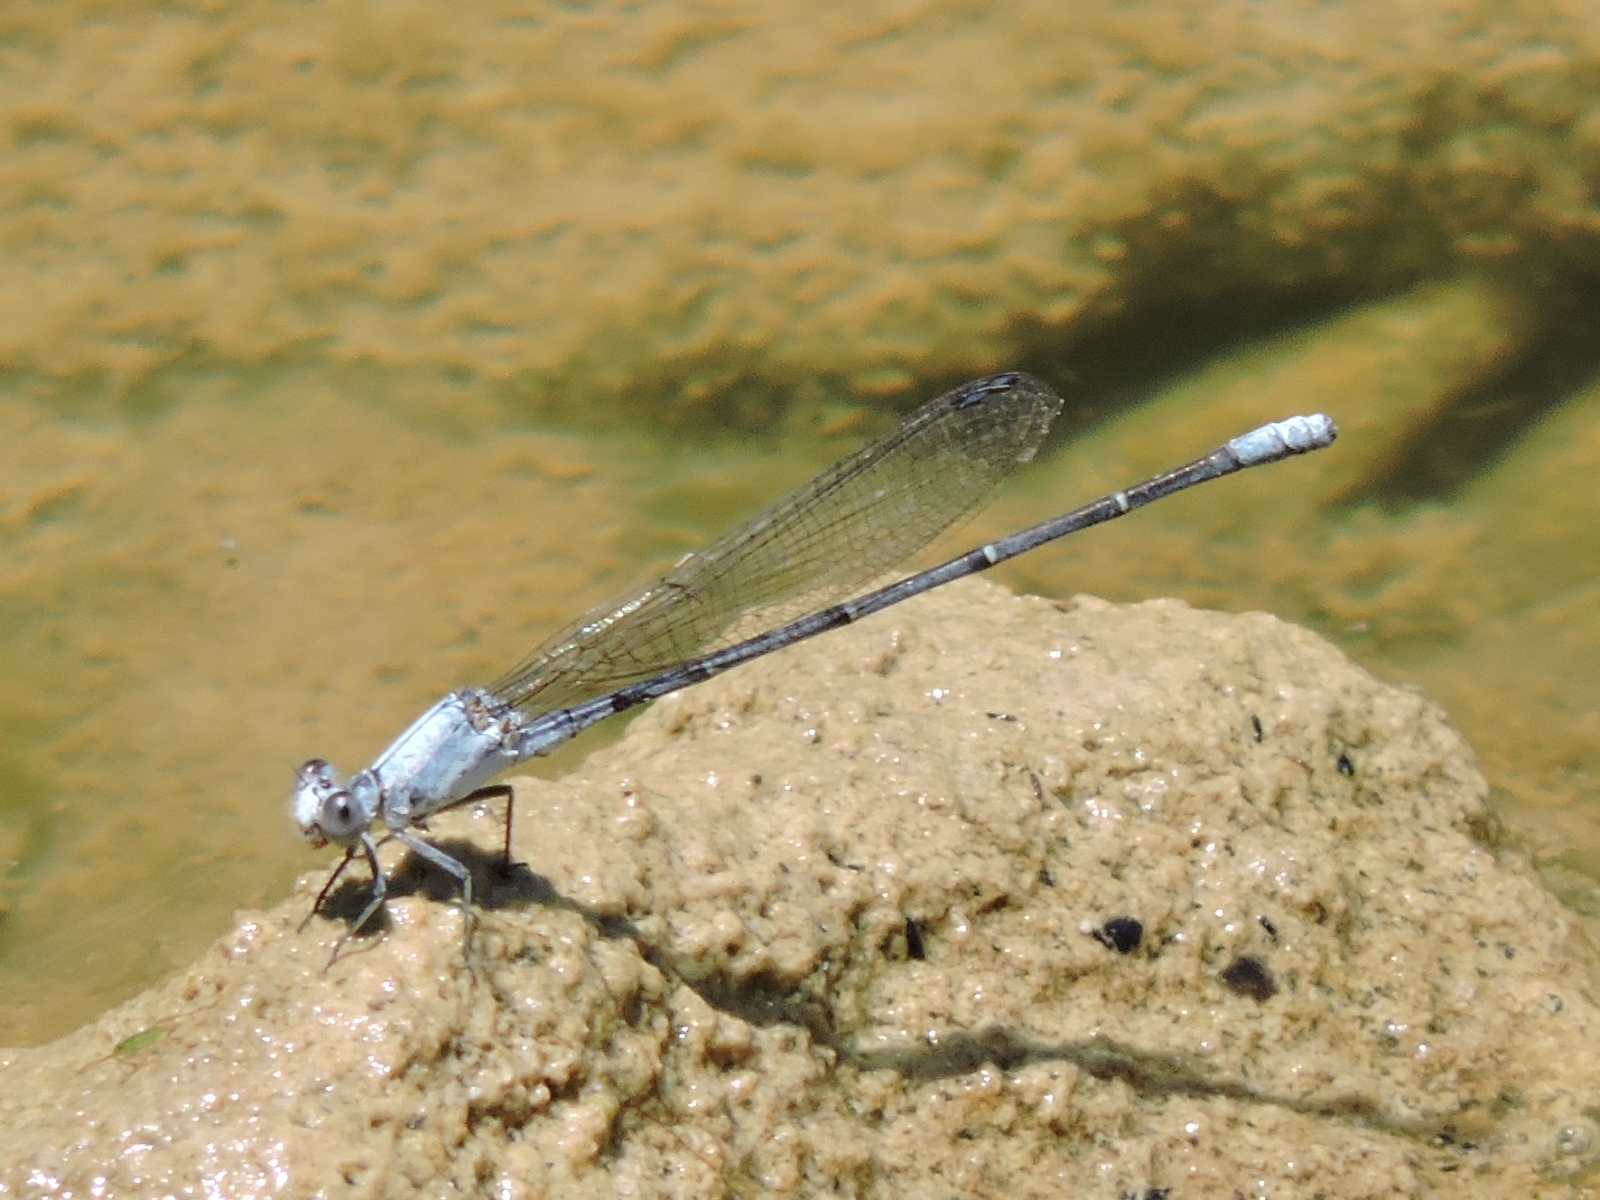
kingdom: Animalia
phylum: Arthropoda
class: Insecta
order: Odonata
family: Coenagrionidae
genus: Argia
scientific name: Argia moesta
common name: Powdered dancer
